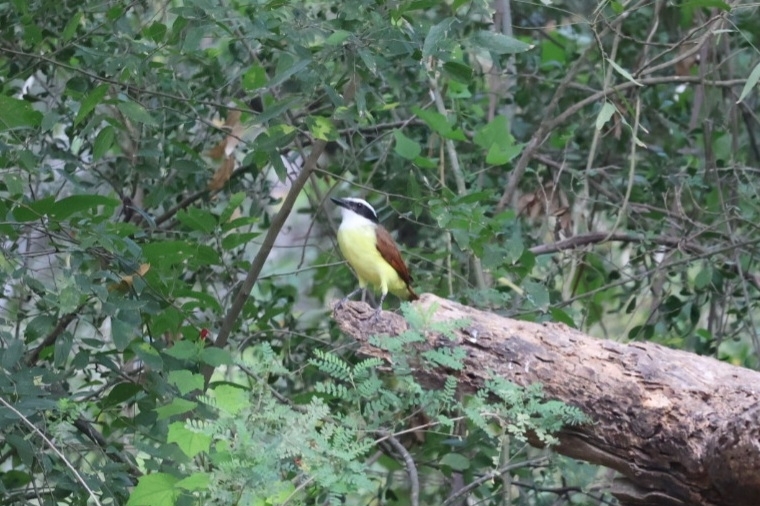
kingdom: Animalia
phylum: Chordata
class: Aves
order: Passeriformes
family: Tyrannidae
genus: Pitangus
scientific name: Pitangus sulphuratus
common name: Great kiskadee
